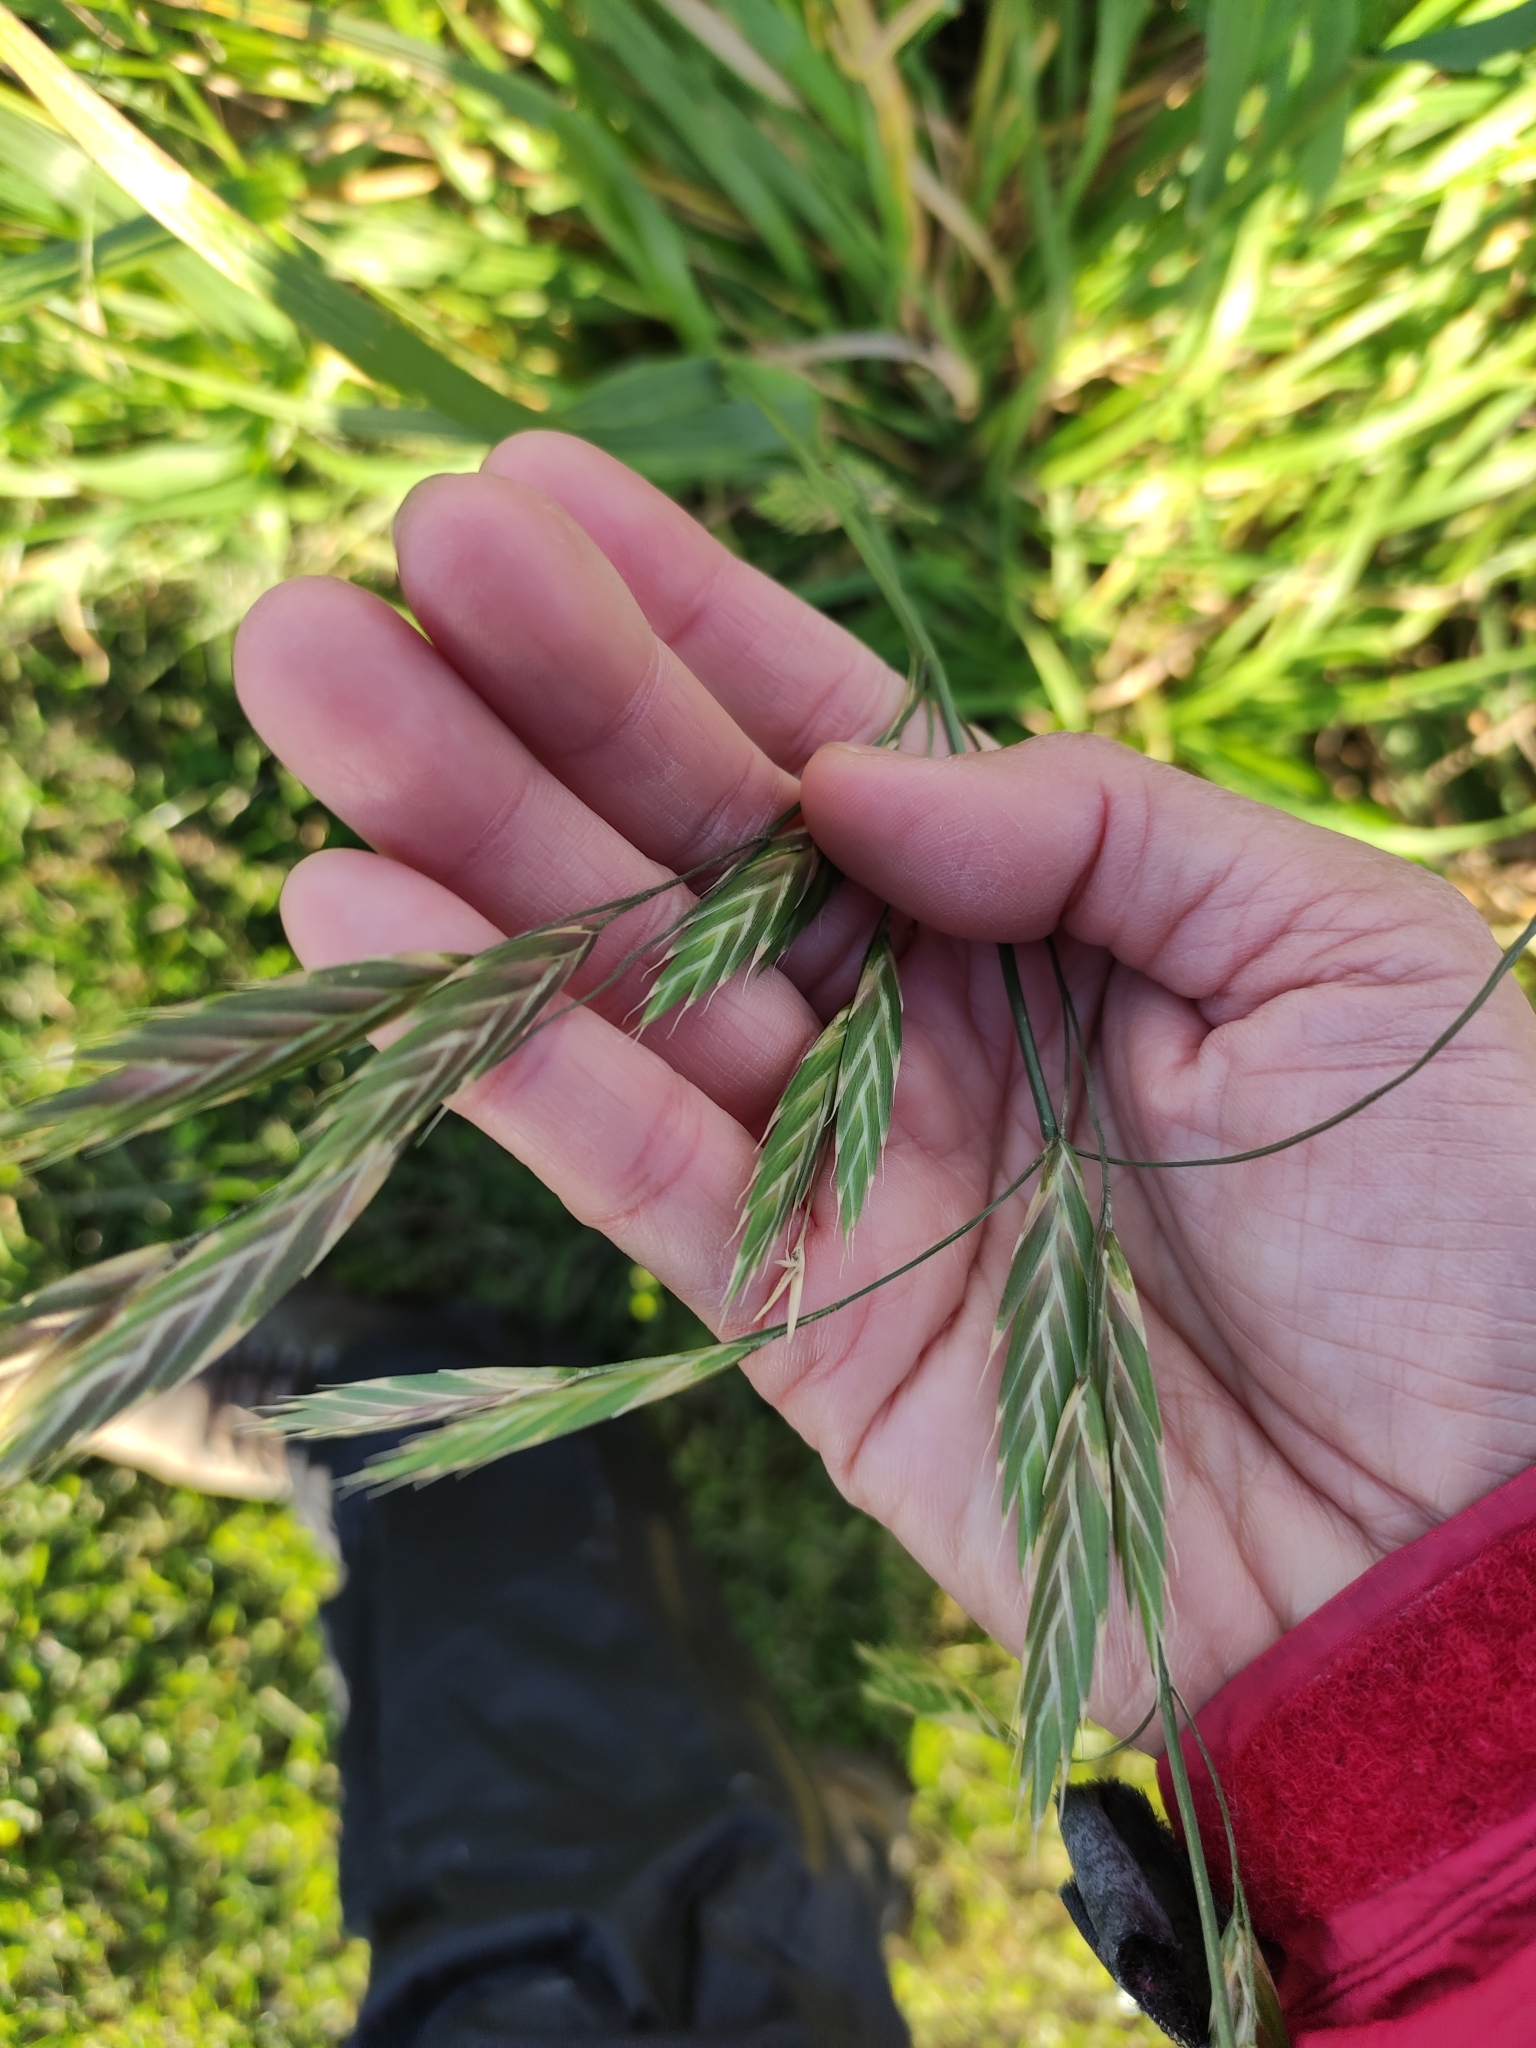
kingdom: Plantae
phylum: Tracheophyta
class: Liliopsida
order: Poales
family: Poaceae
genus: Bromus
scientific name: Bromus catharticus
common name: Rescuegrass
